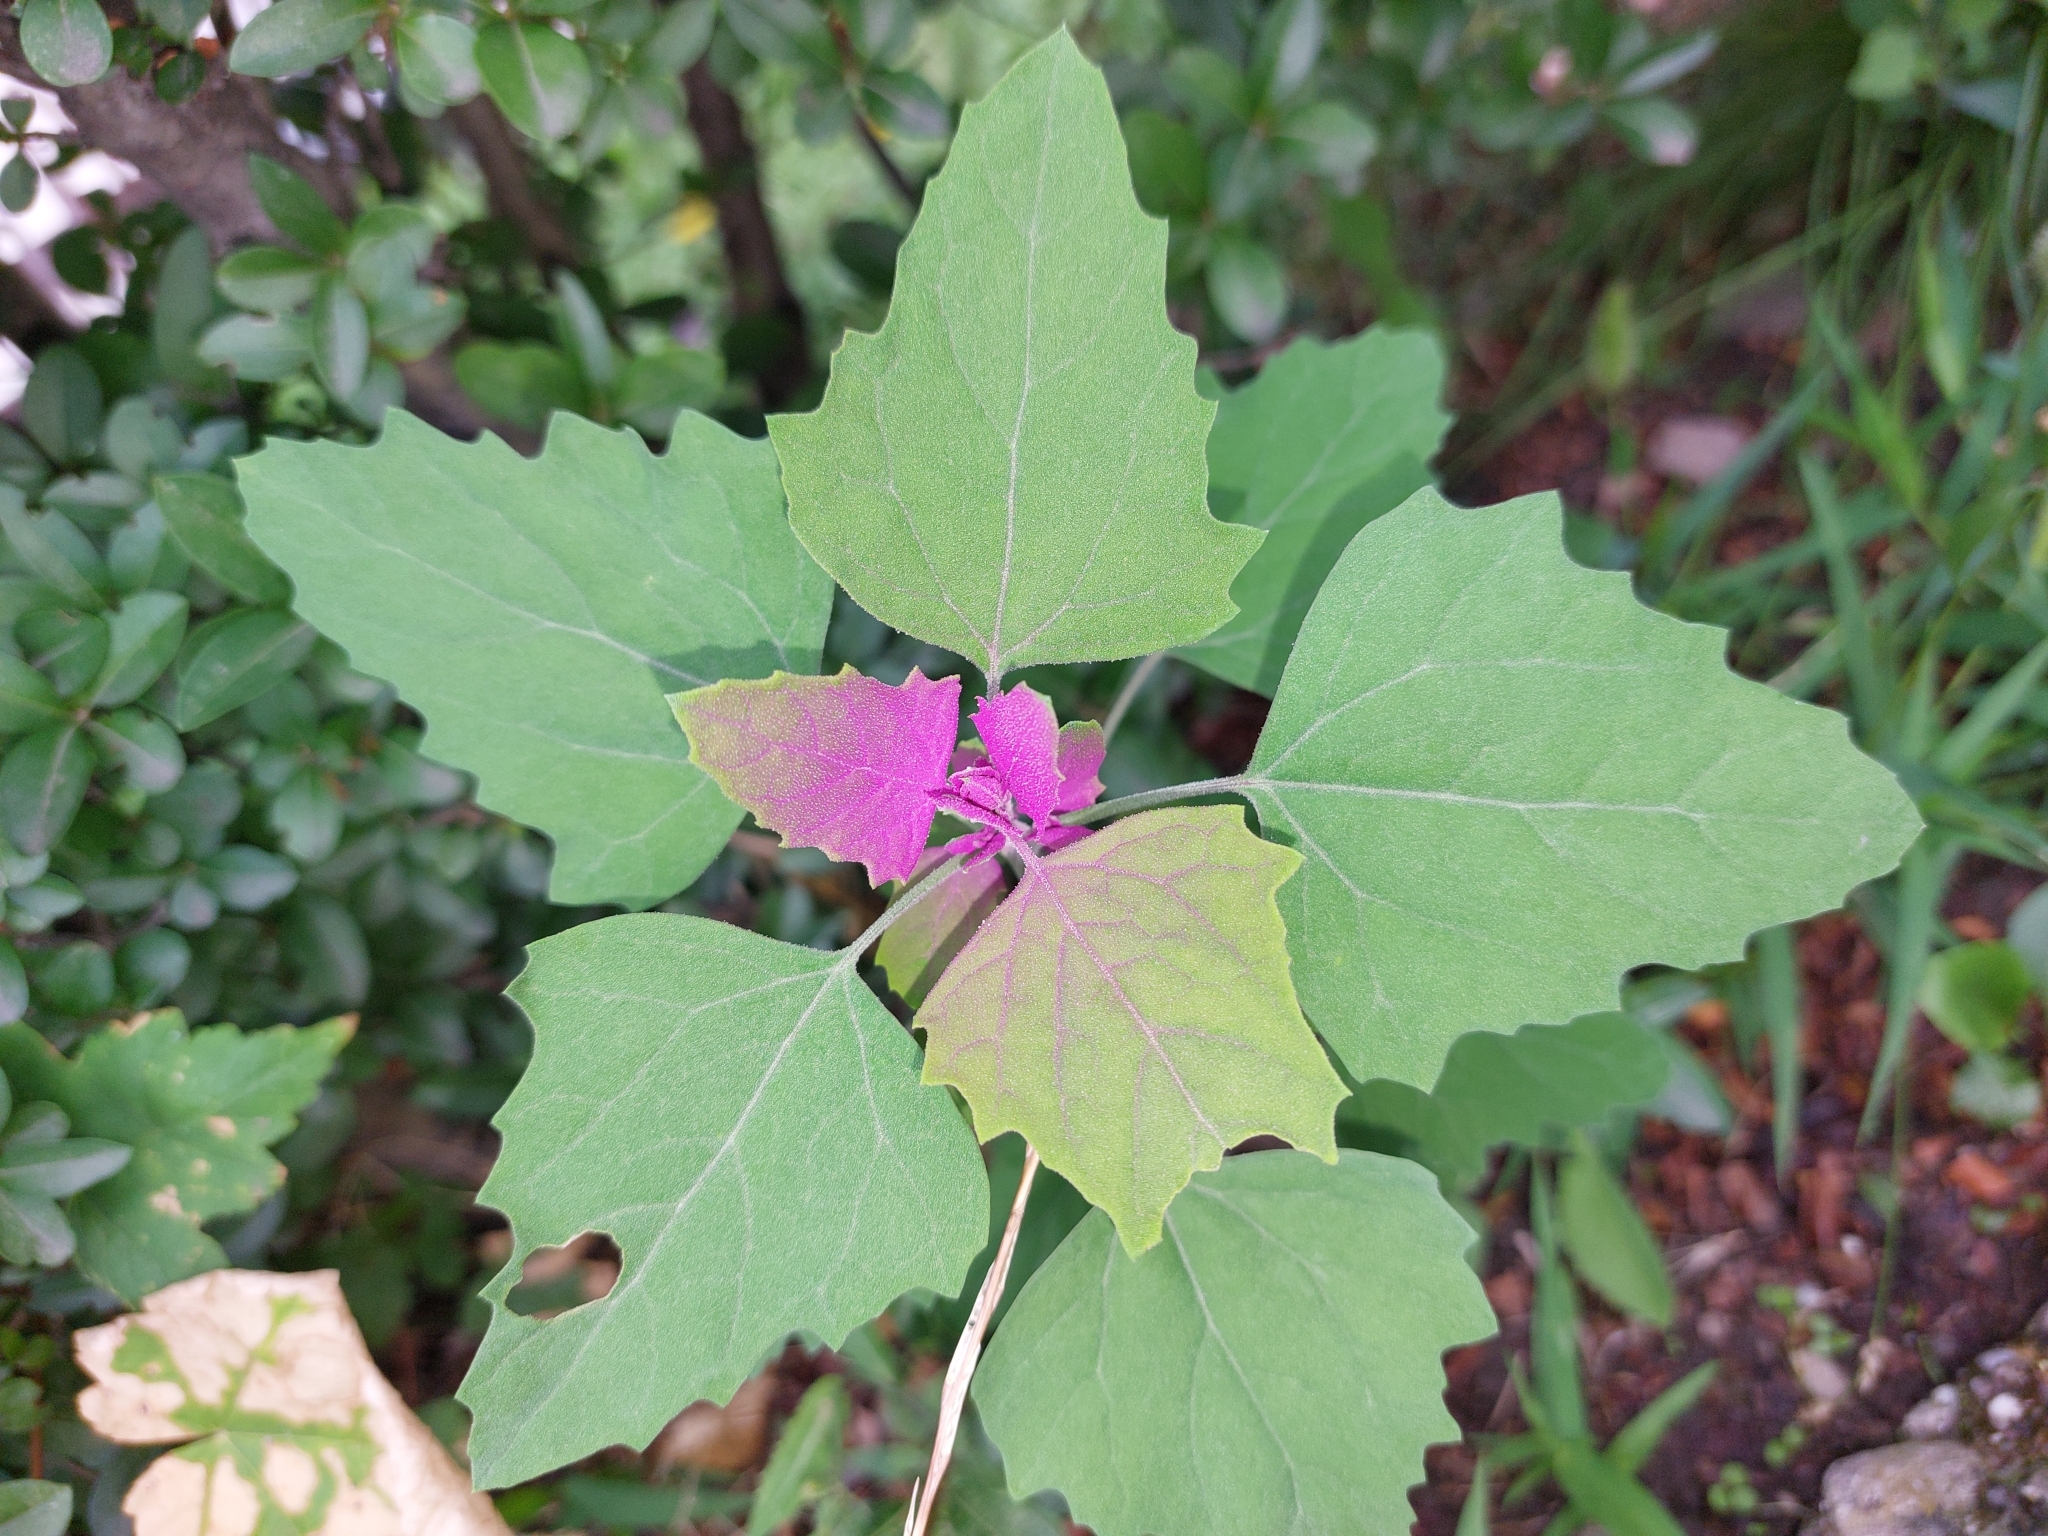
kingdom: Plantae
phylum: Tracheophyta
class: Magnoliopsida
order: Caryophyllales
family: Amaranthaceae
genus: Chenopodium
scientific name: Chenopodium giganteum
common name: Magentaspreen
